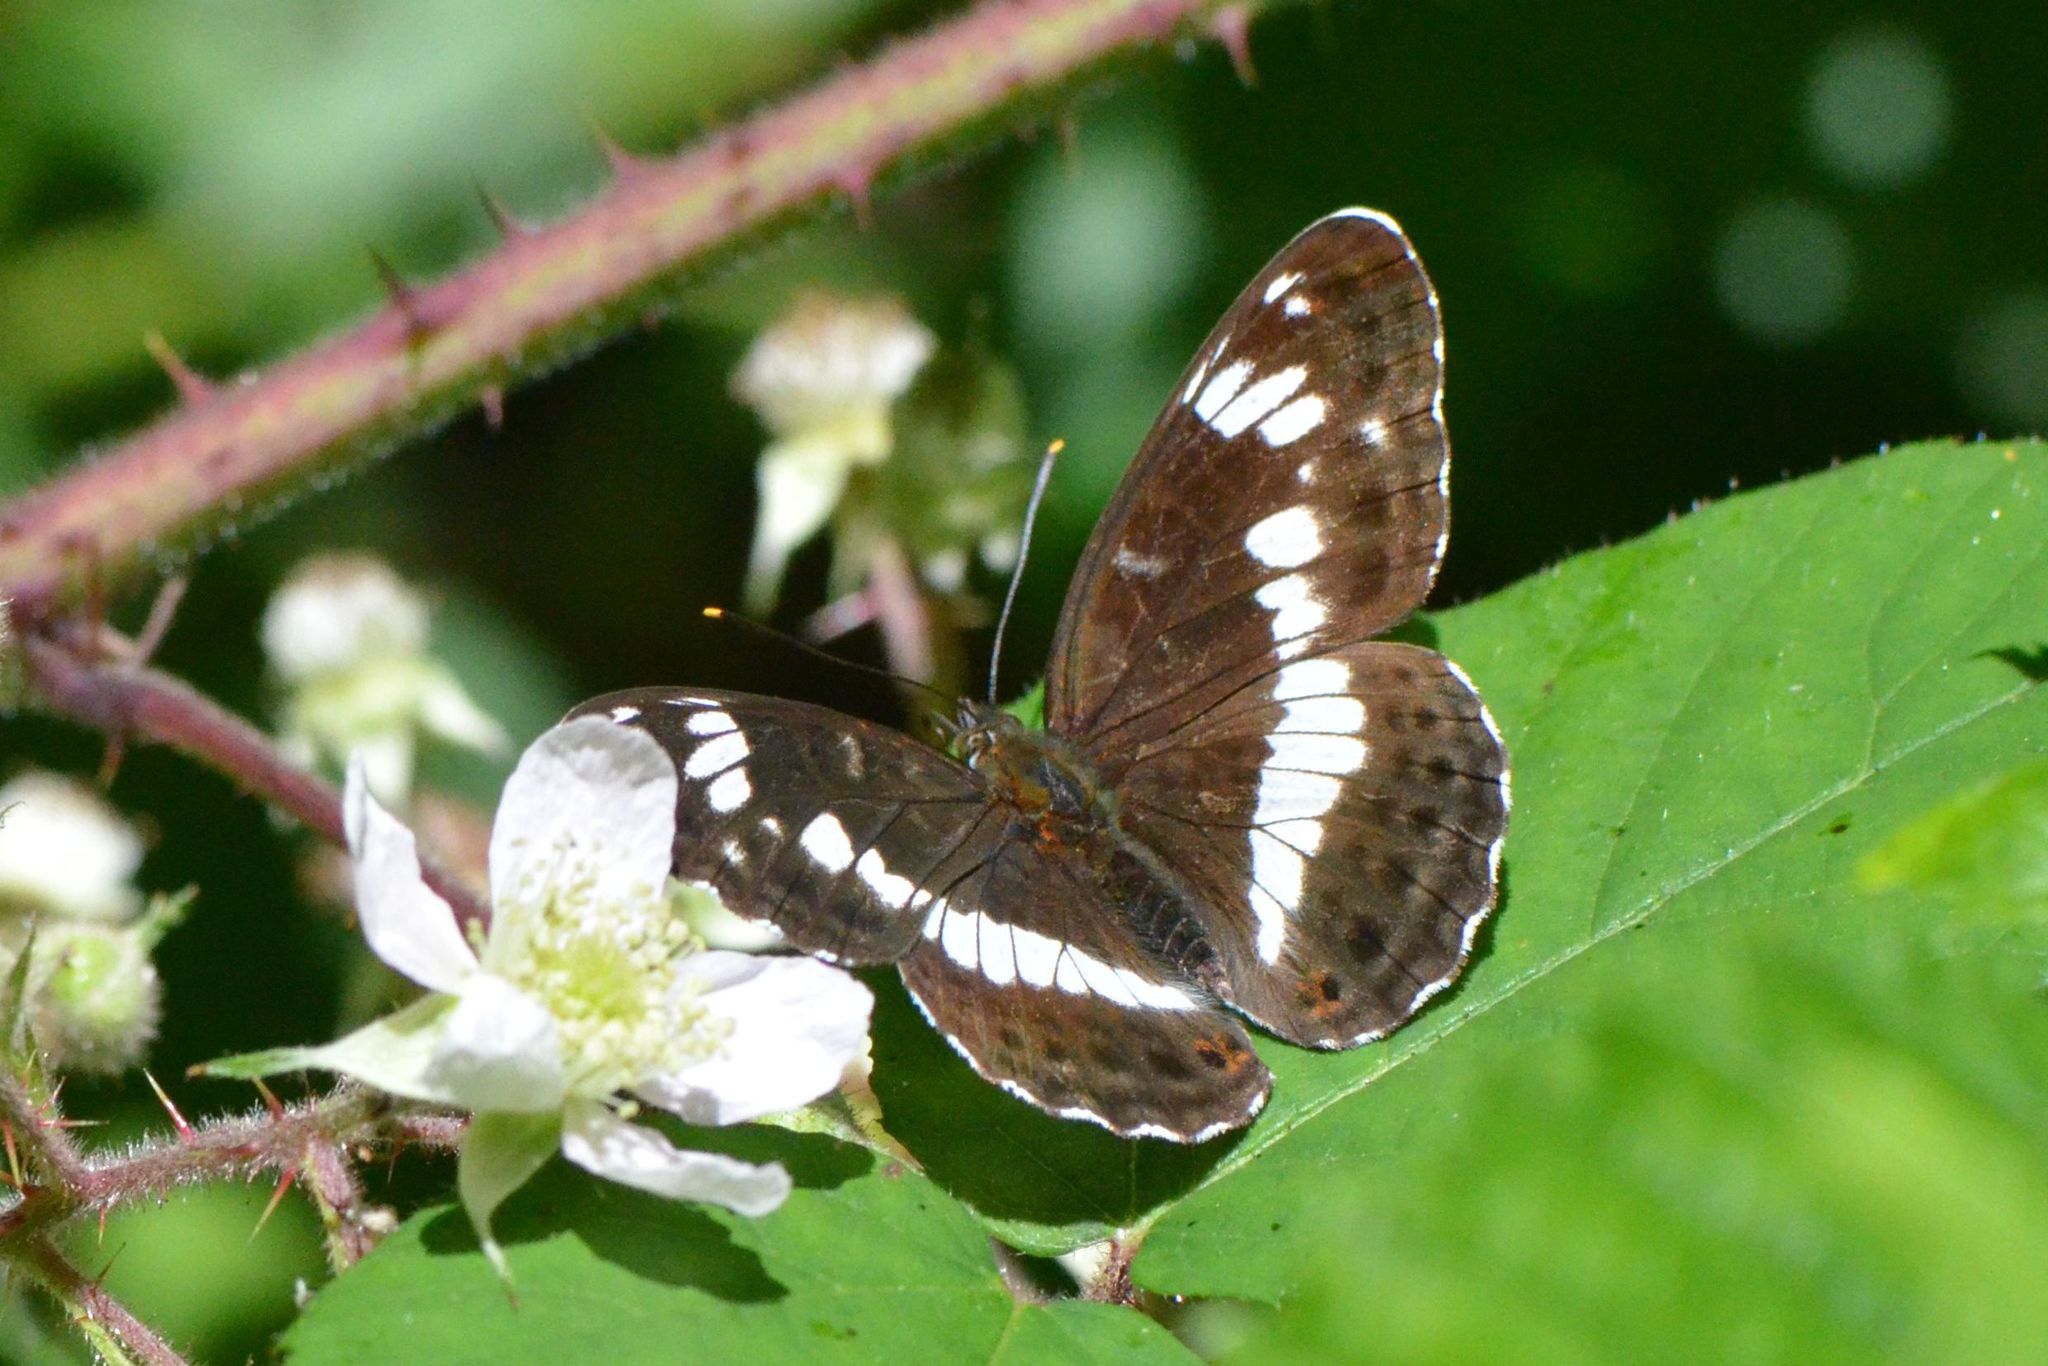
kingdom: Animalia
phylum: Arthropoda
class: Insecta
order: Lepidoptera
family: Nymphalidae
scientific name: Nymphalidae
